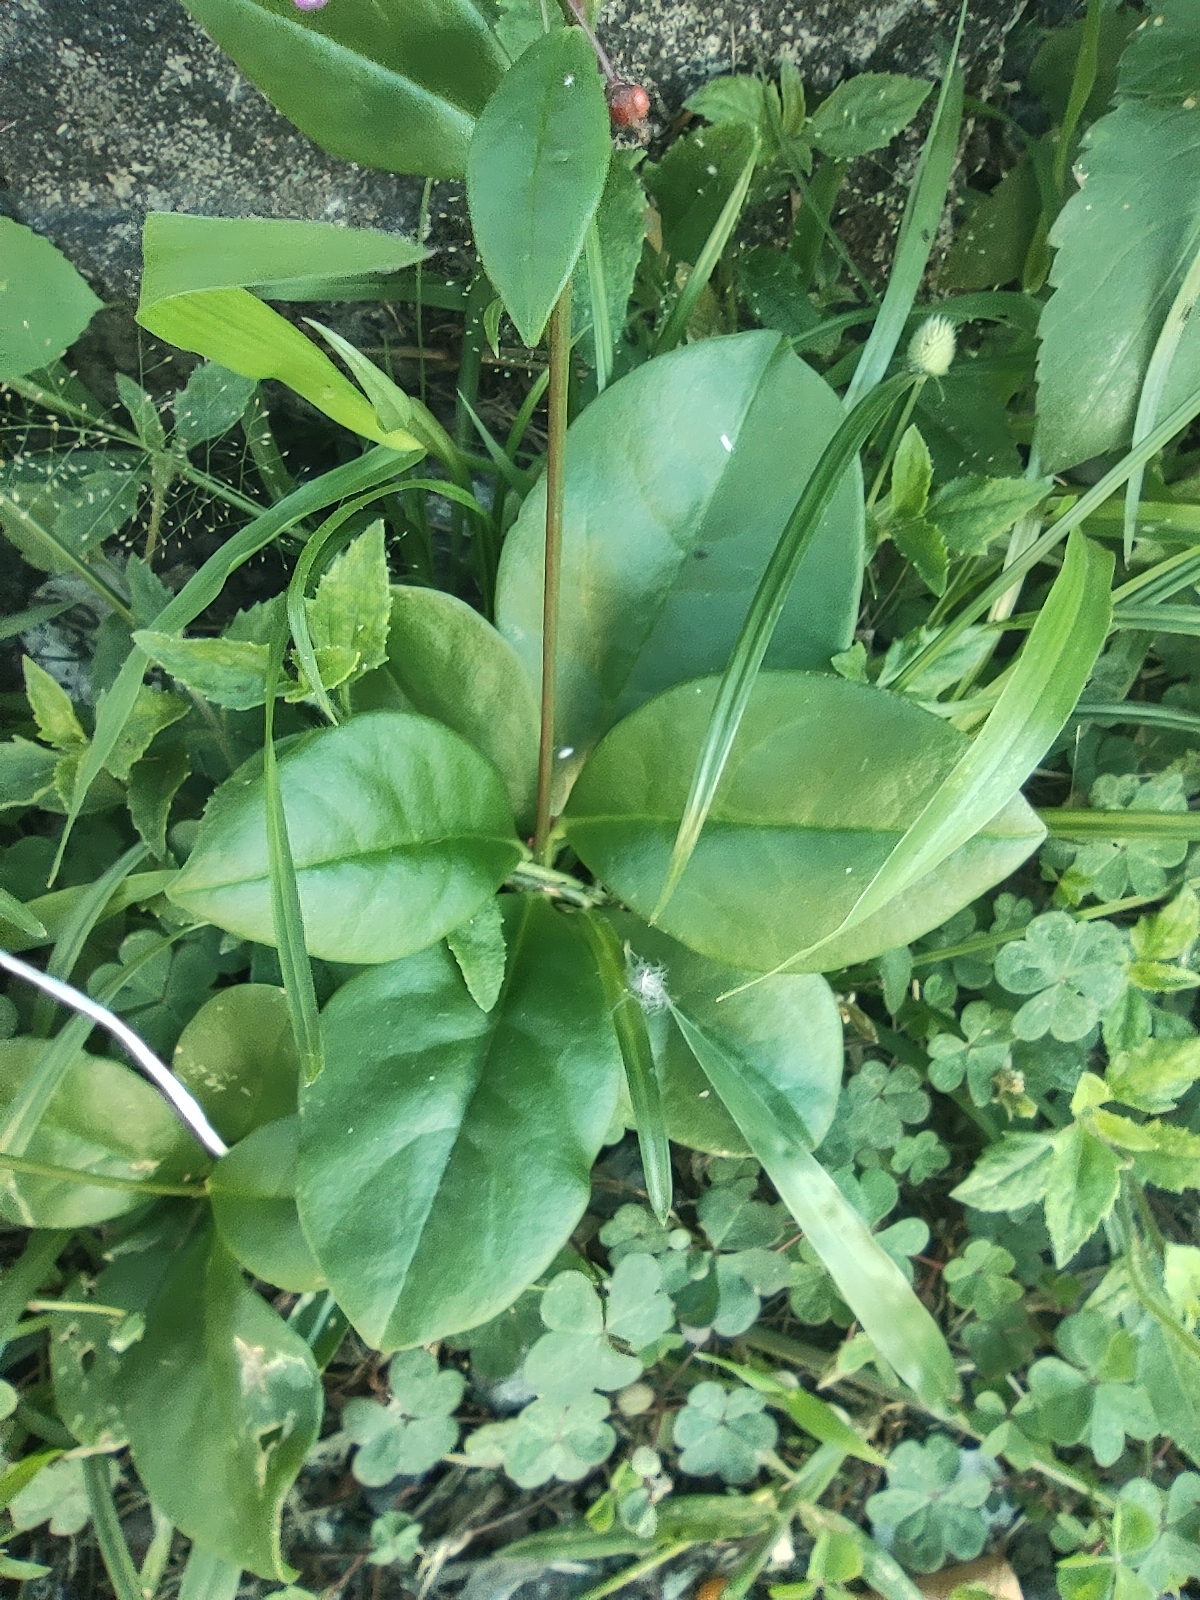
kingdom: Plantae
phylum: Tracheophyta
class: Magnoliopsida
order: Caryophyllales
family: Talinaceae
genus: Talinum
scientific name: Talinum paniculatum
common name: Jewels of opar
